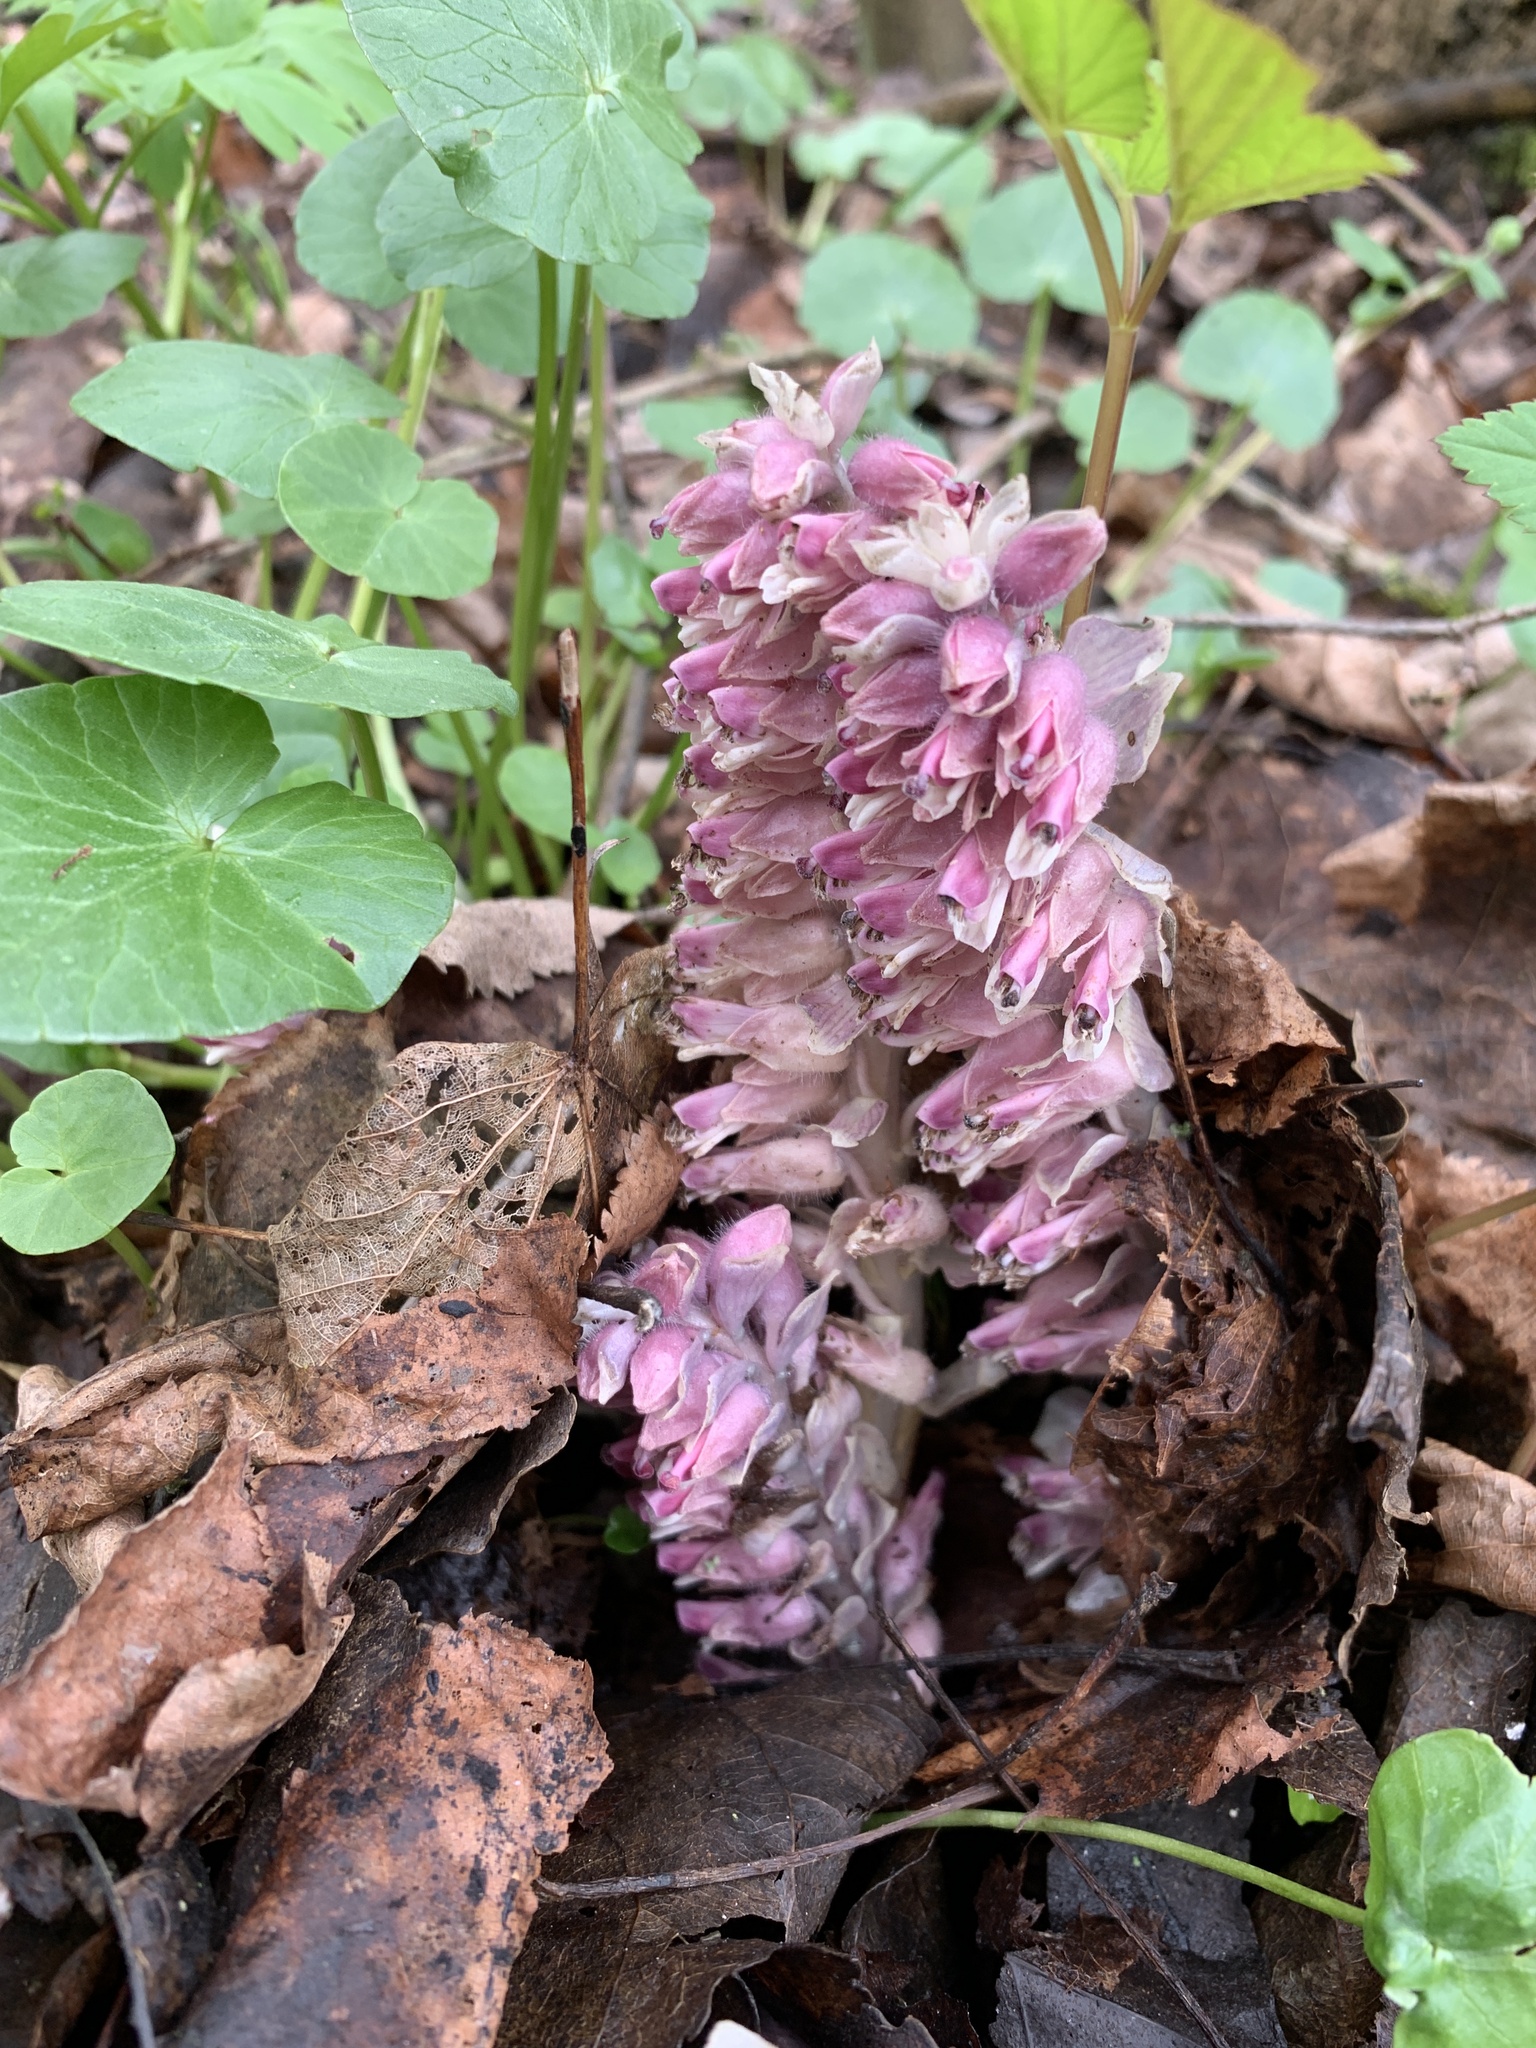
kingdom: Plantae
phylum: Tracheophyta
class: Magnoliopsida
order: Lamiales
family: Orobanchaceae
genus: Lathraea
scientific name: Lathraea squamaria
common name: Toothwort
